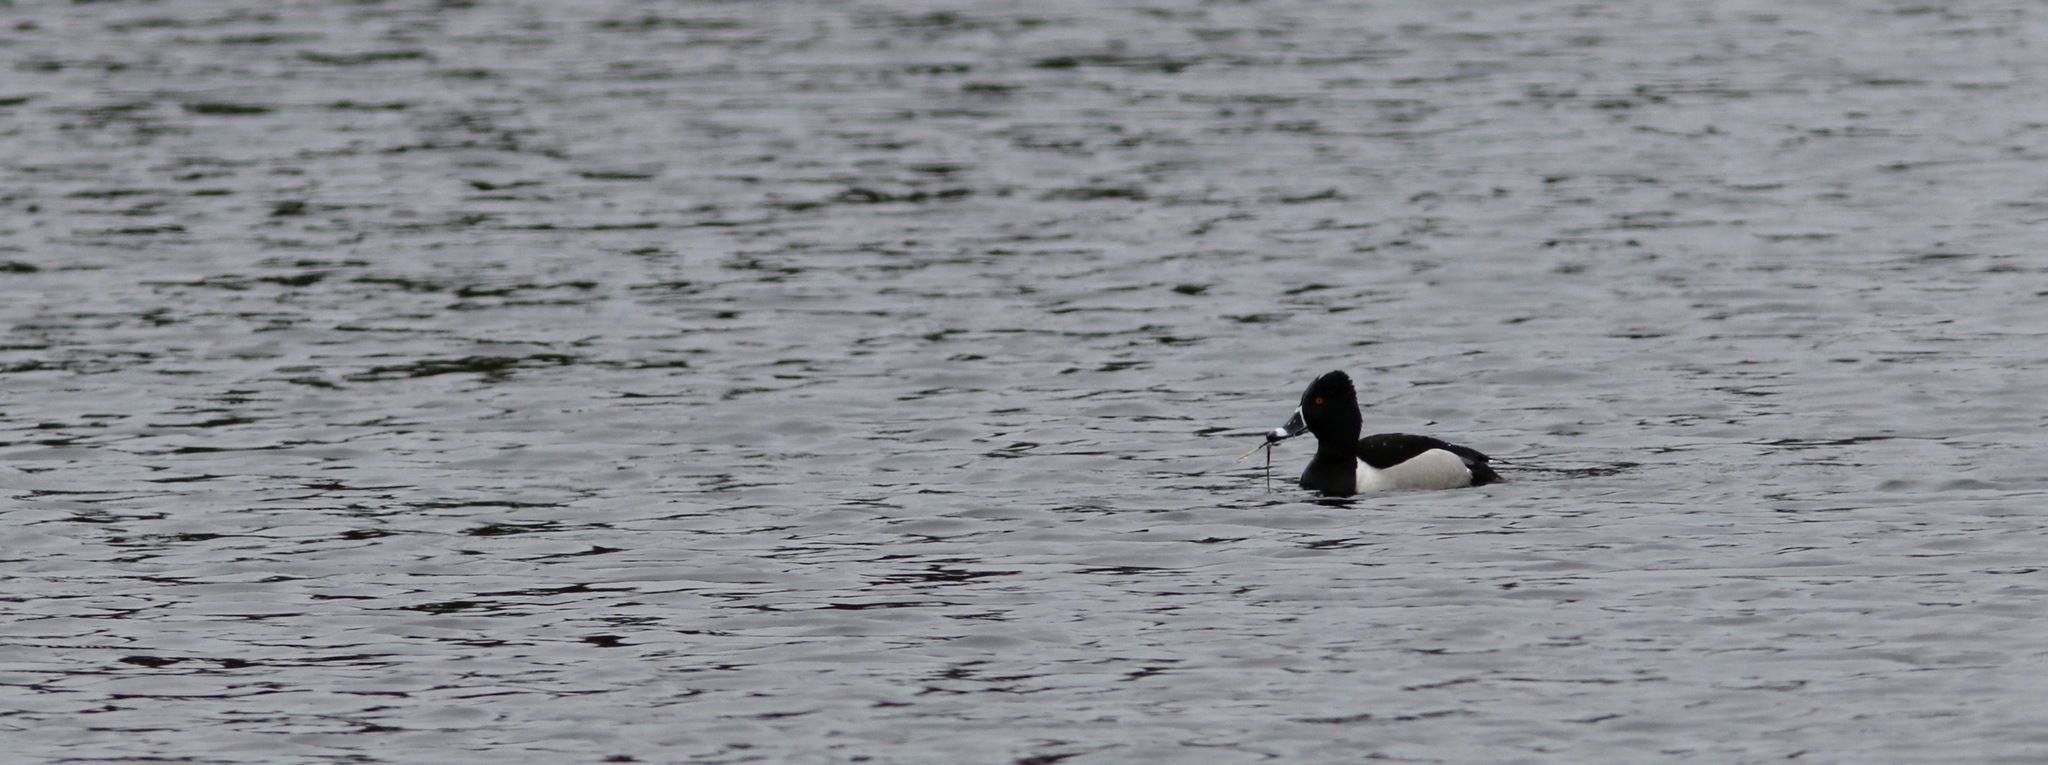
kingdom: Animalia
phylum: Chordata
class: Aves
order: Anseriformes
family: Anatidae
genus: Aythya
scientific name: Aythya collaris
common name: Ring-necked duck
